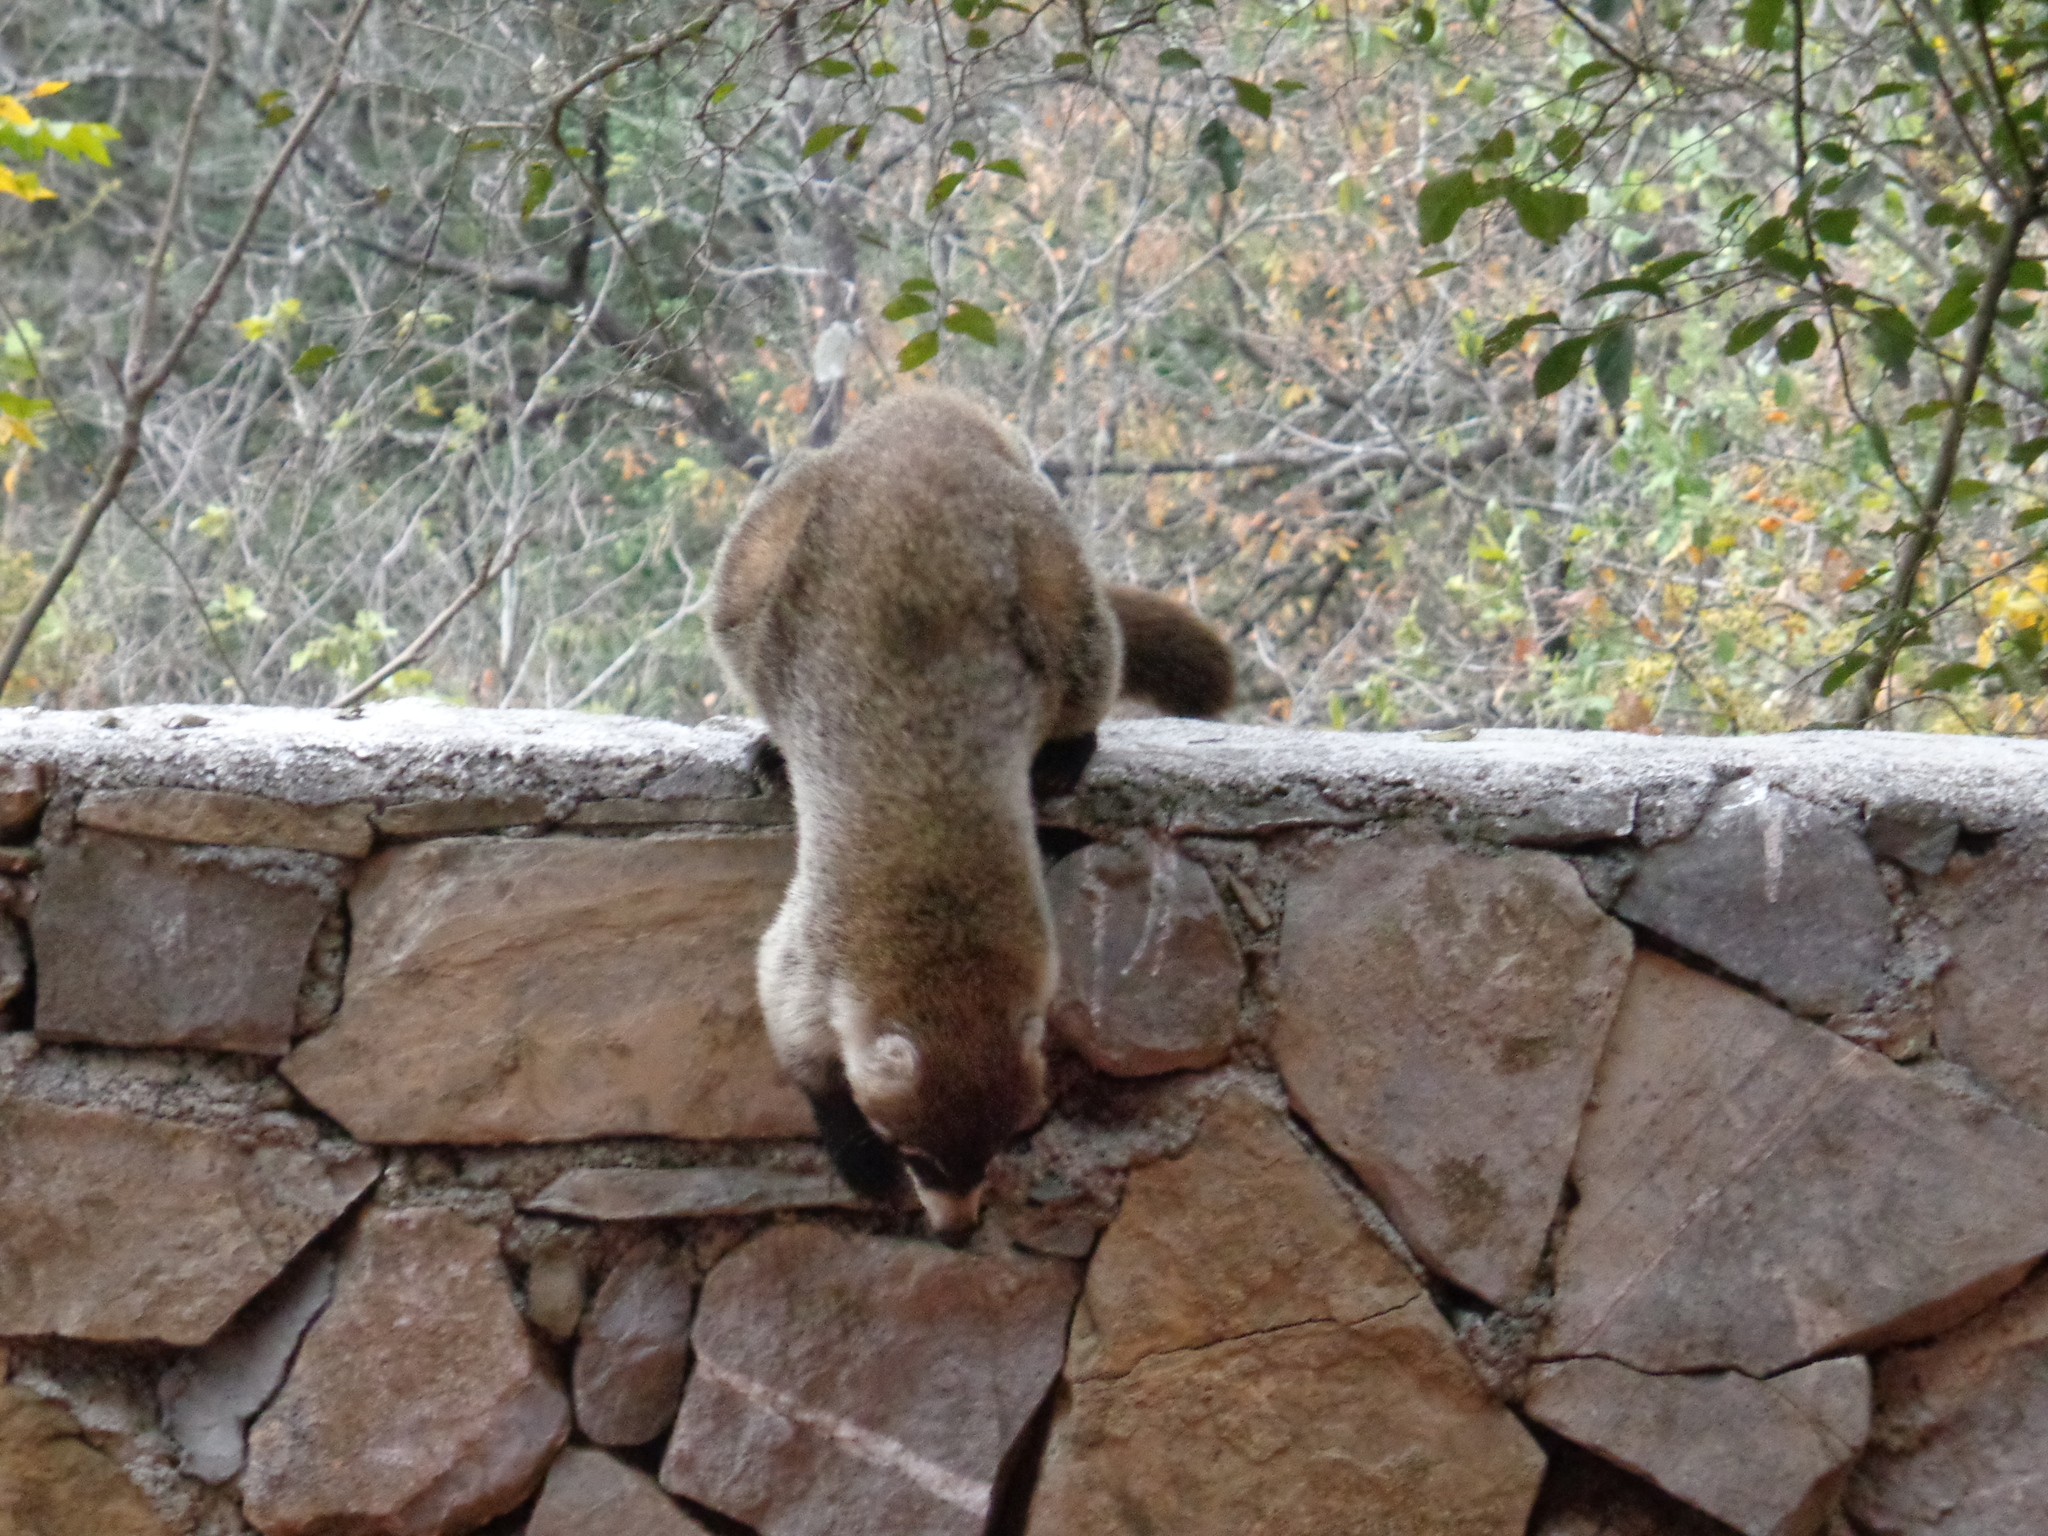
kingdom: Animalia
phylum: Chordata
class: Mammalia
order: Carnivora
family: Procyonidae
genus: Nasua
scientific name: Nasua narica
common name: White-nosed coati
